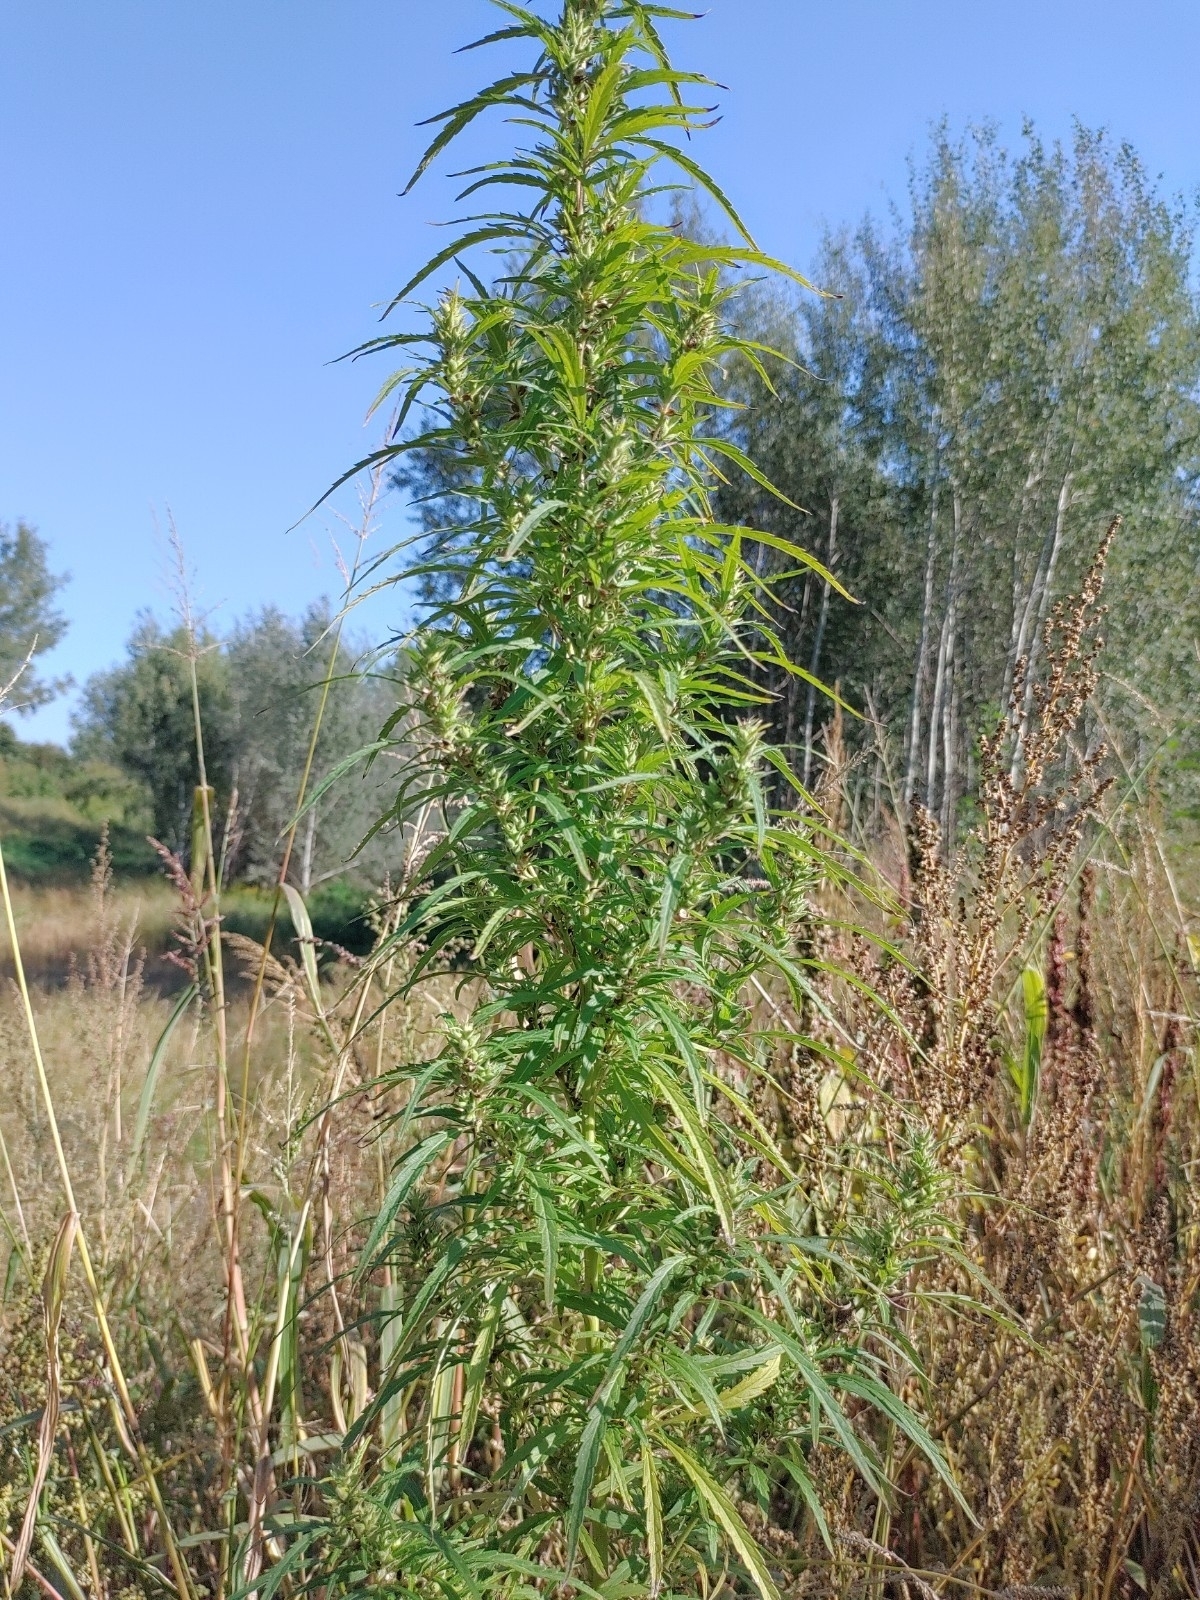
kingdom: Plantae
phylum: Tracheophyta
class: Magnoliopsida
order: Rosales
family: Cannabaceae
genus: Cannabis
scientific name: Cannabis sativa
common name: Hemp
